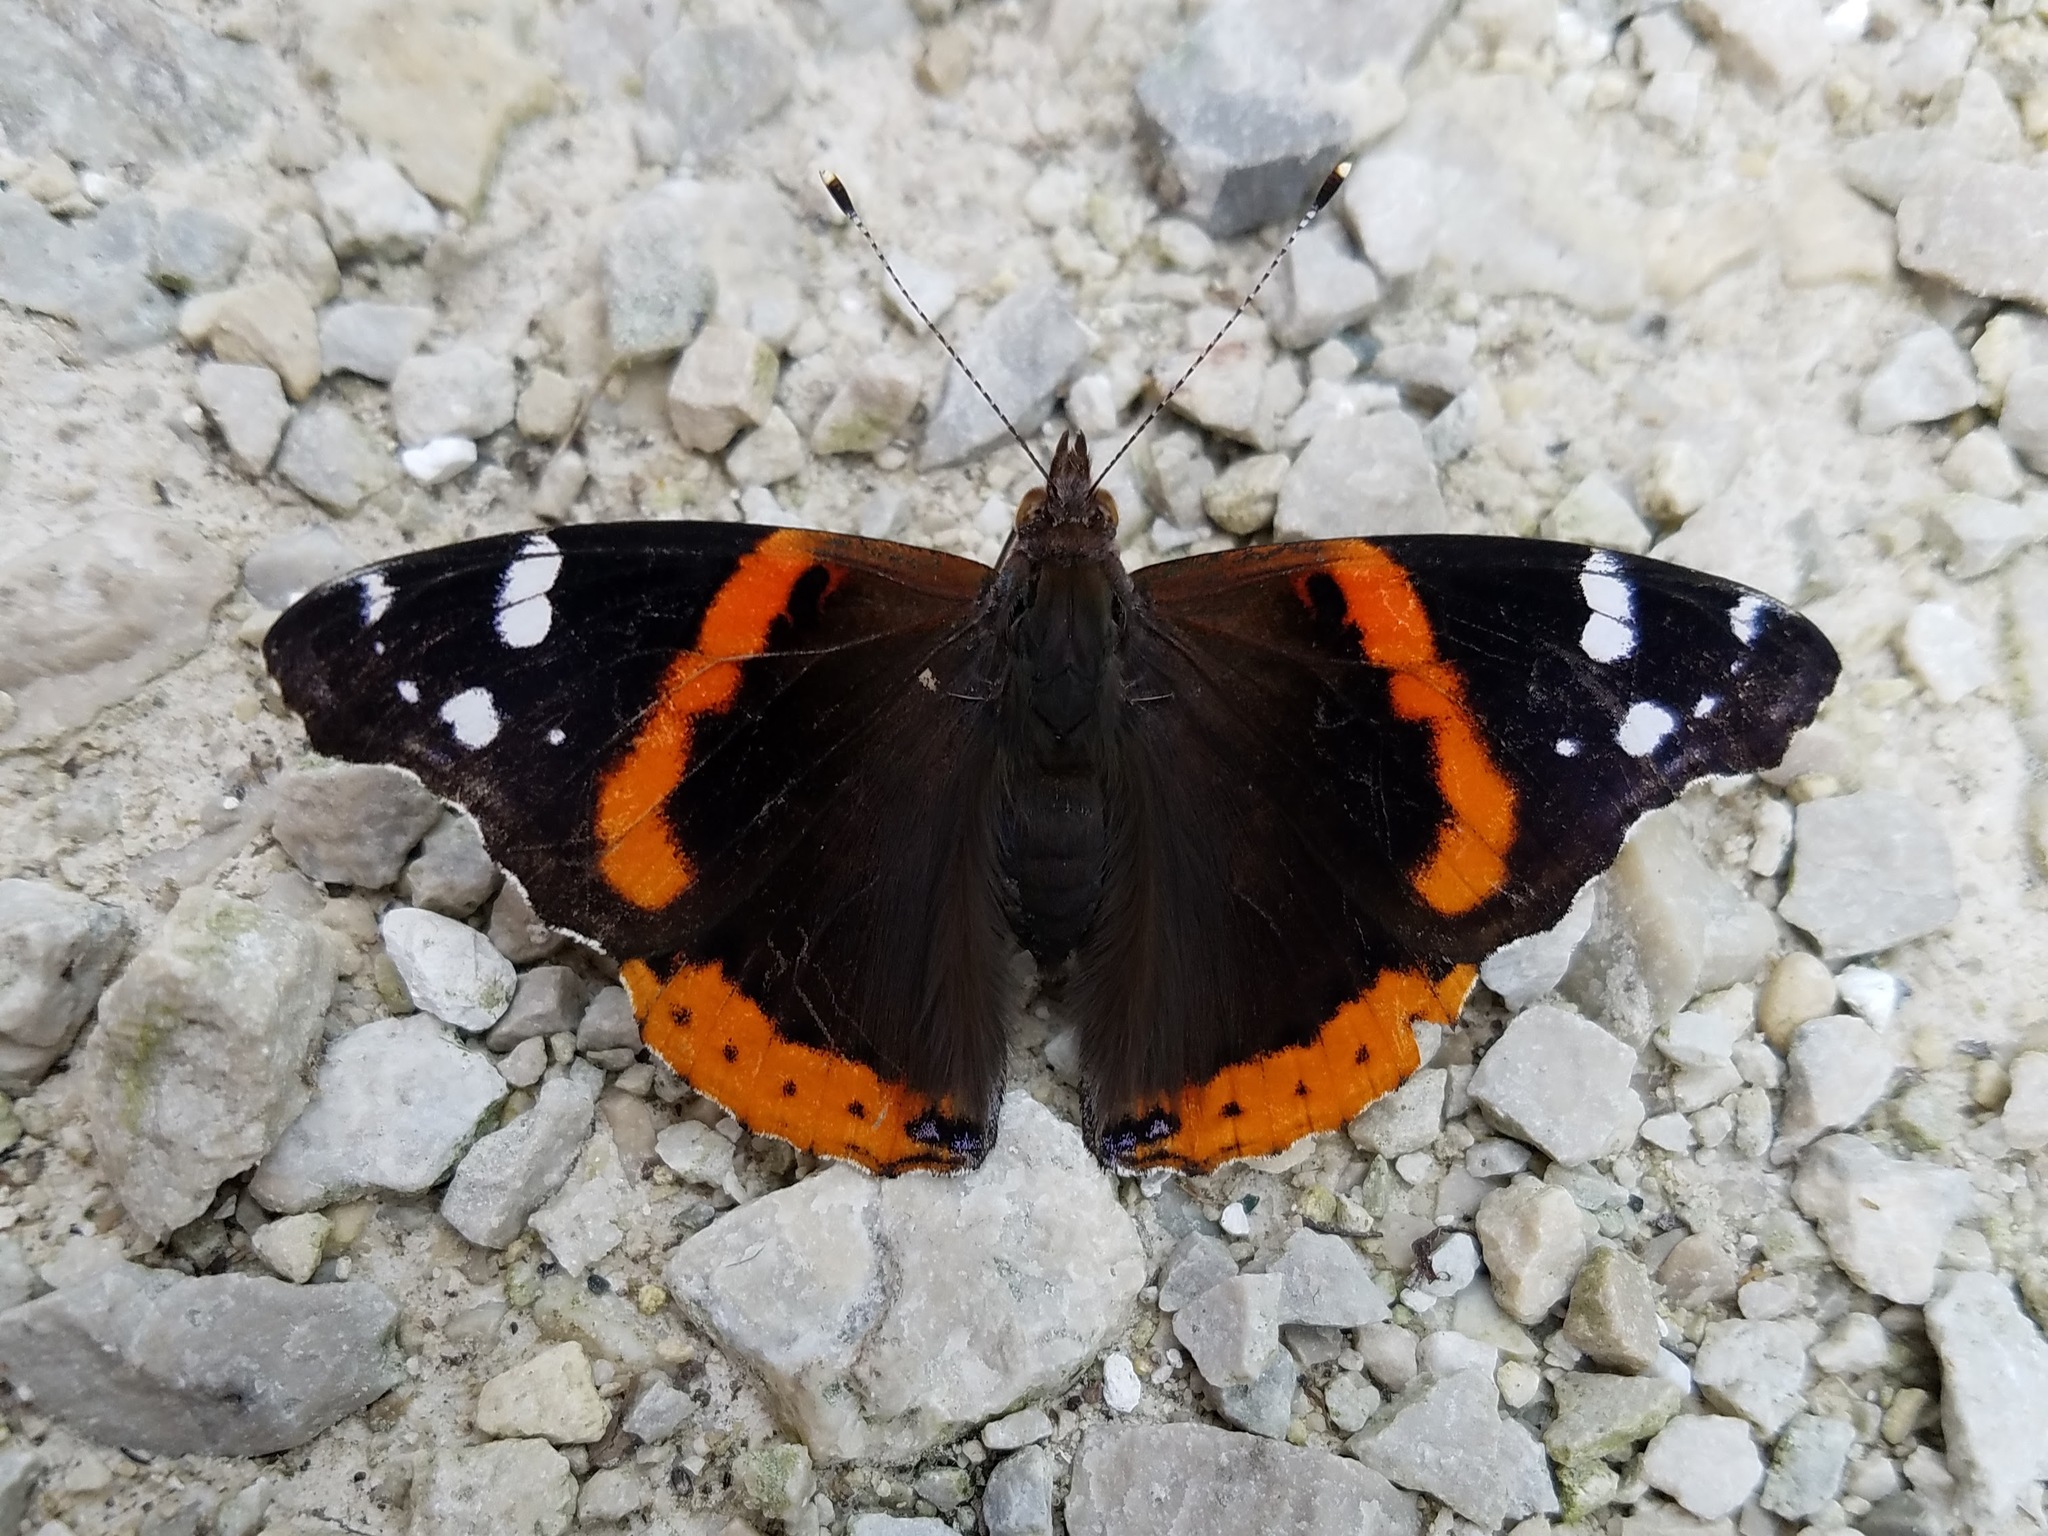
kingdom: Animalia
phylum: Arthropoda
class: Insecta
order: Lepidoptera
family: Nymphalidae
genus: Vanessa
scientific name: Vanessa atalanta
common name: Red admiral
